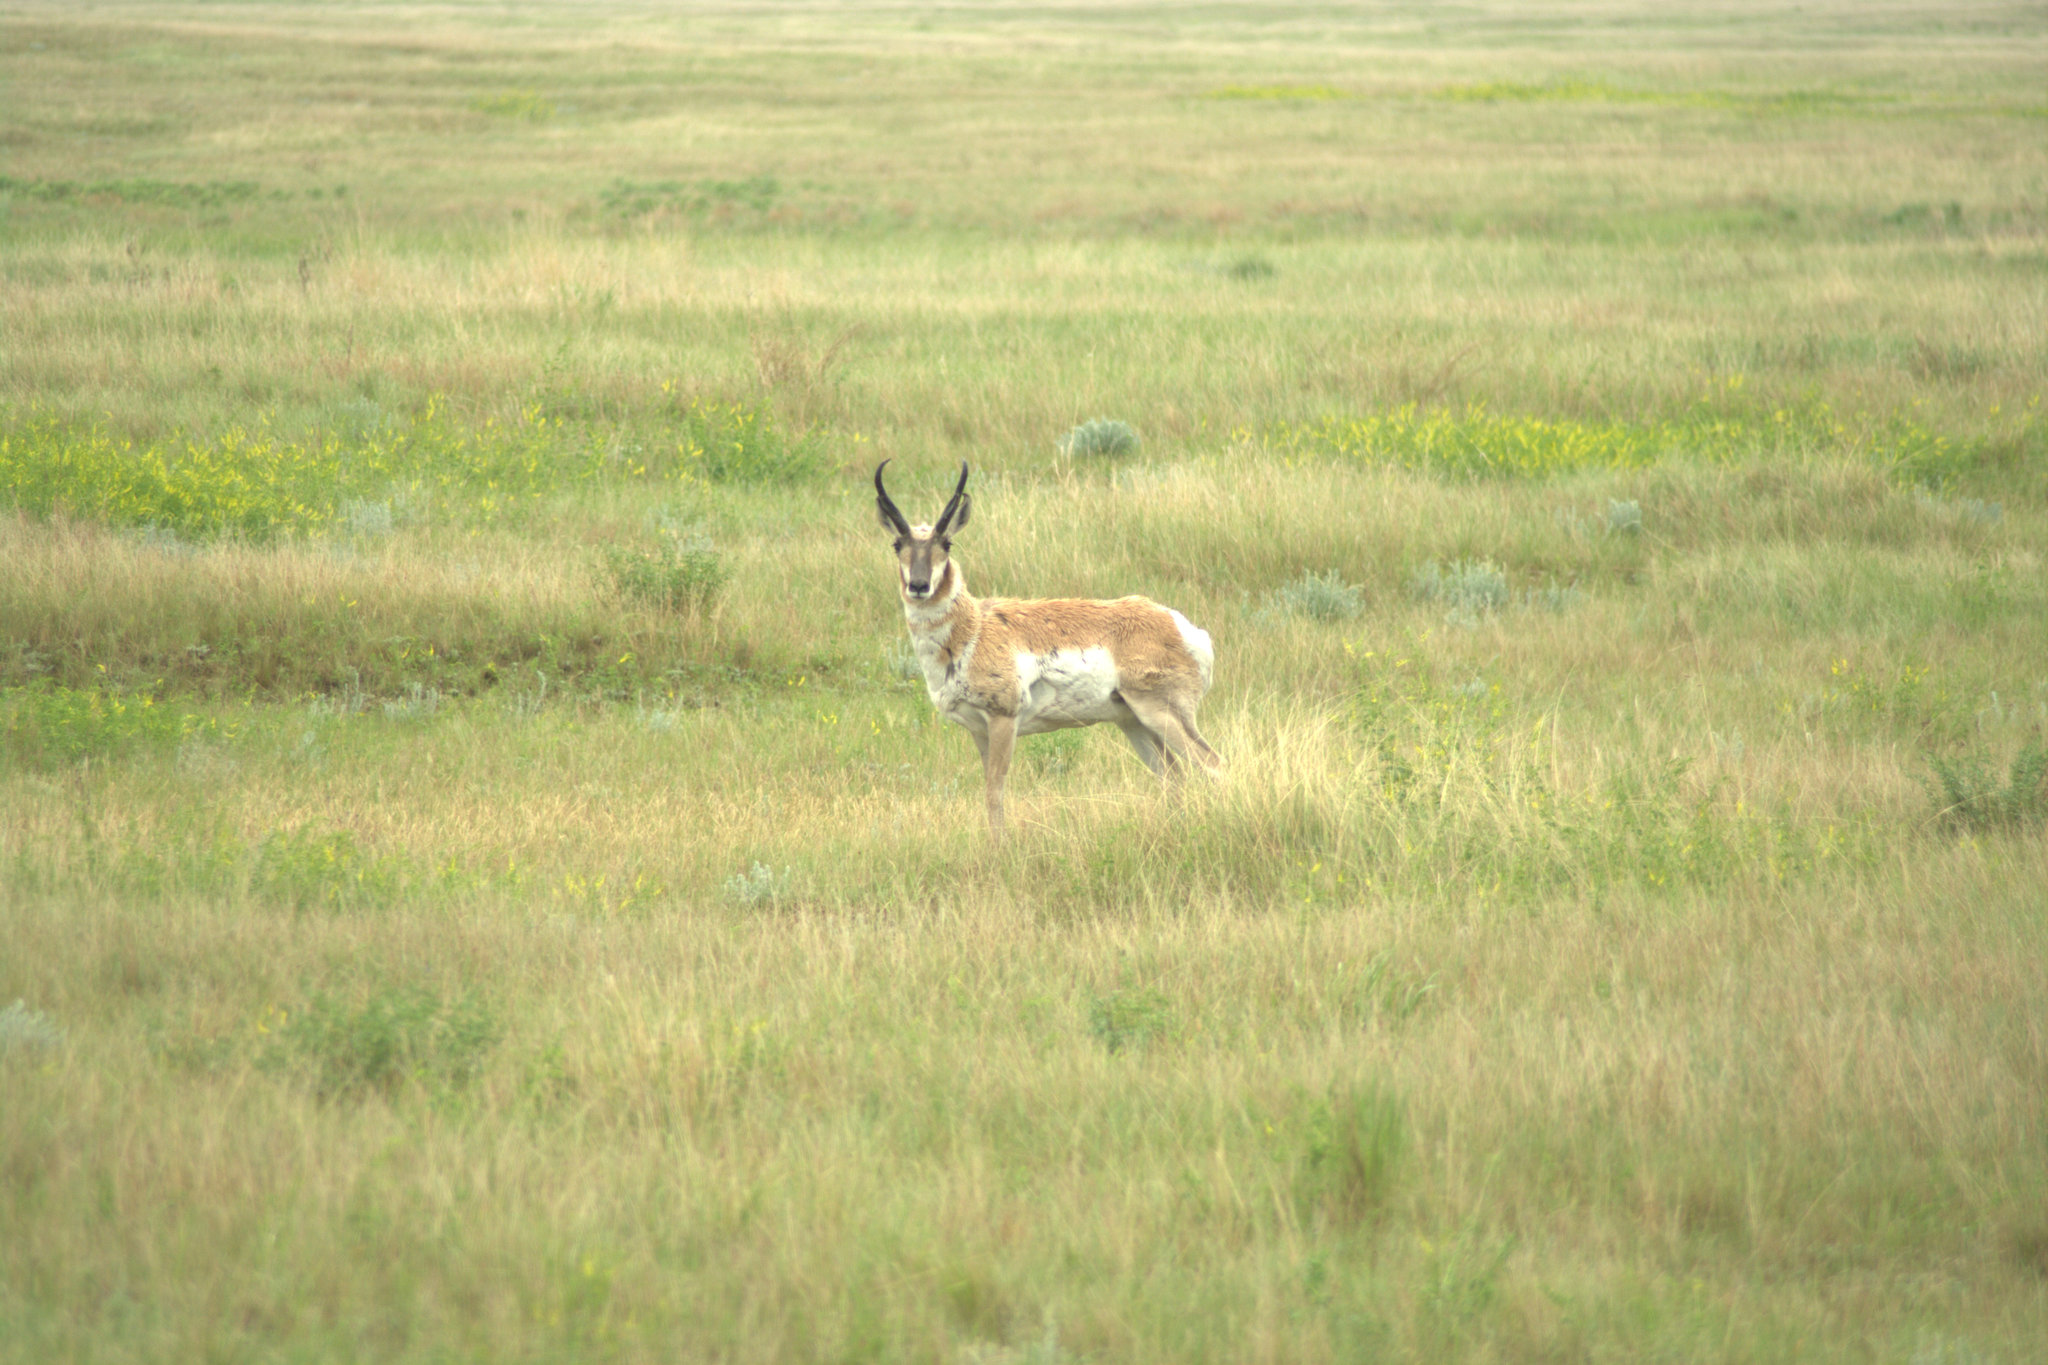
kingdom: Animalia
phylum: Chordata
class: Mammalia
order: Artiodactyla
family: Antilocapridae
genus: Antilocapra
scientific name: Antilocapra americana
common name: Pronghorn
